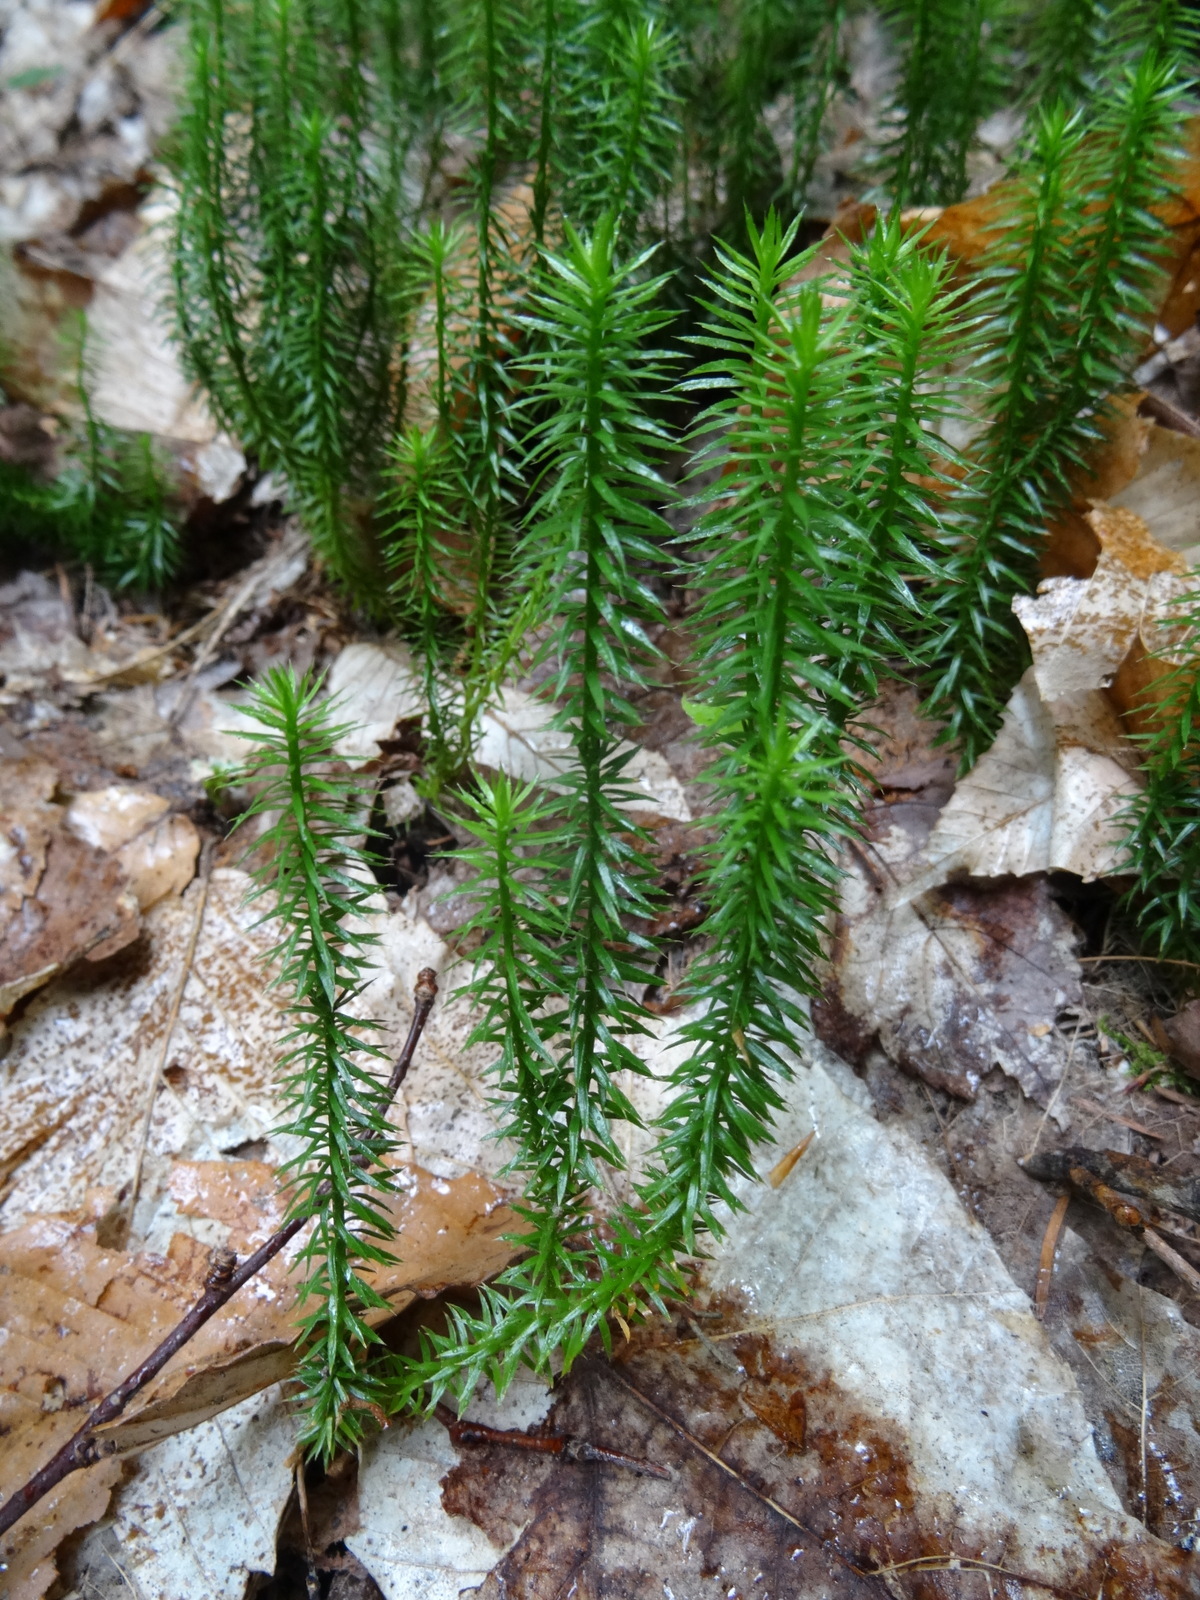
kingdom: Plantae
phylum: Tracheophyta
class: Lycopodiopsida
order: Lycopodiales
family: Lycopodiaceae
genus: Spinulum
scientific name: Spinulum annotinum
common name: Interrupted club-moss
